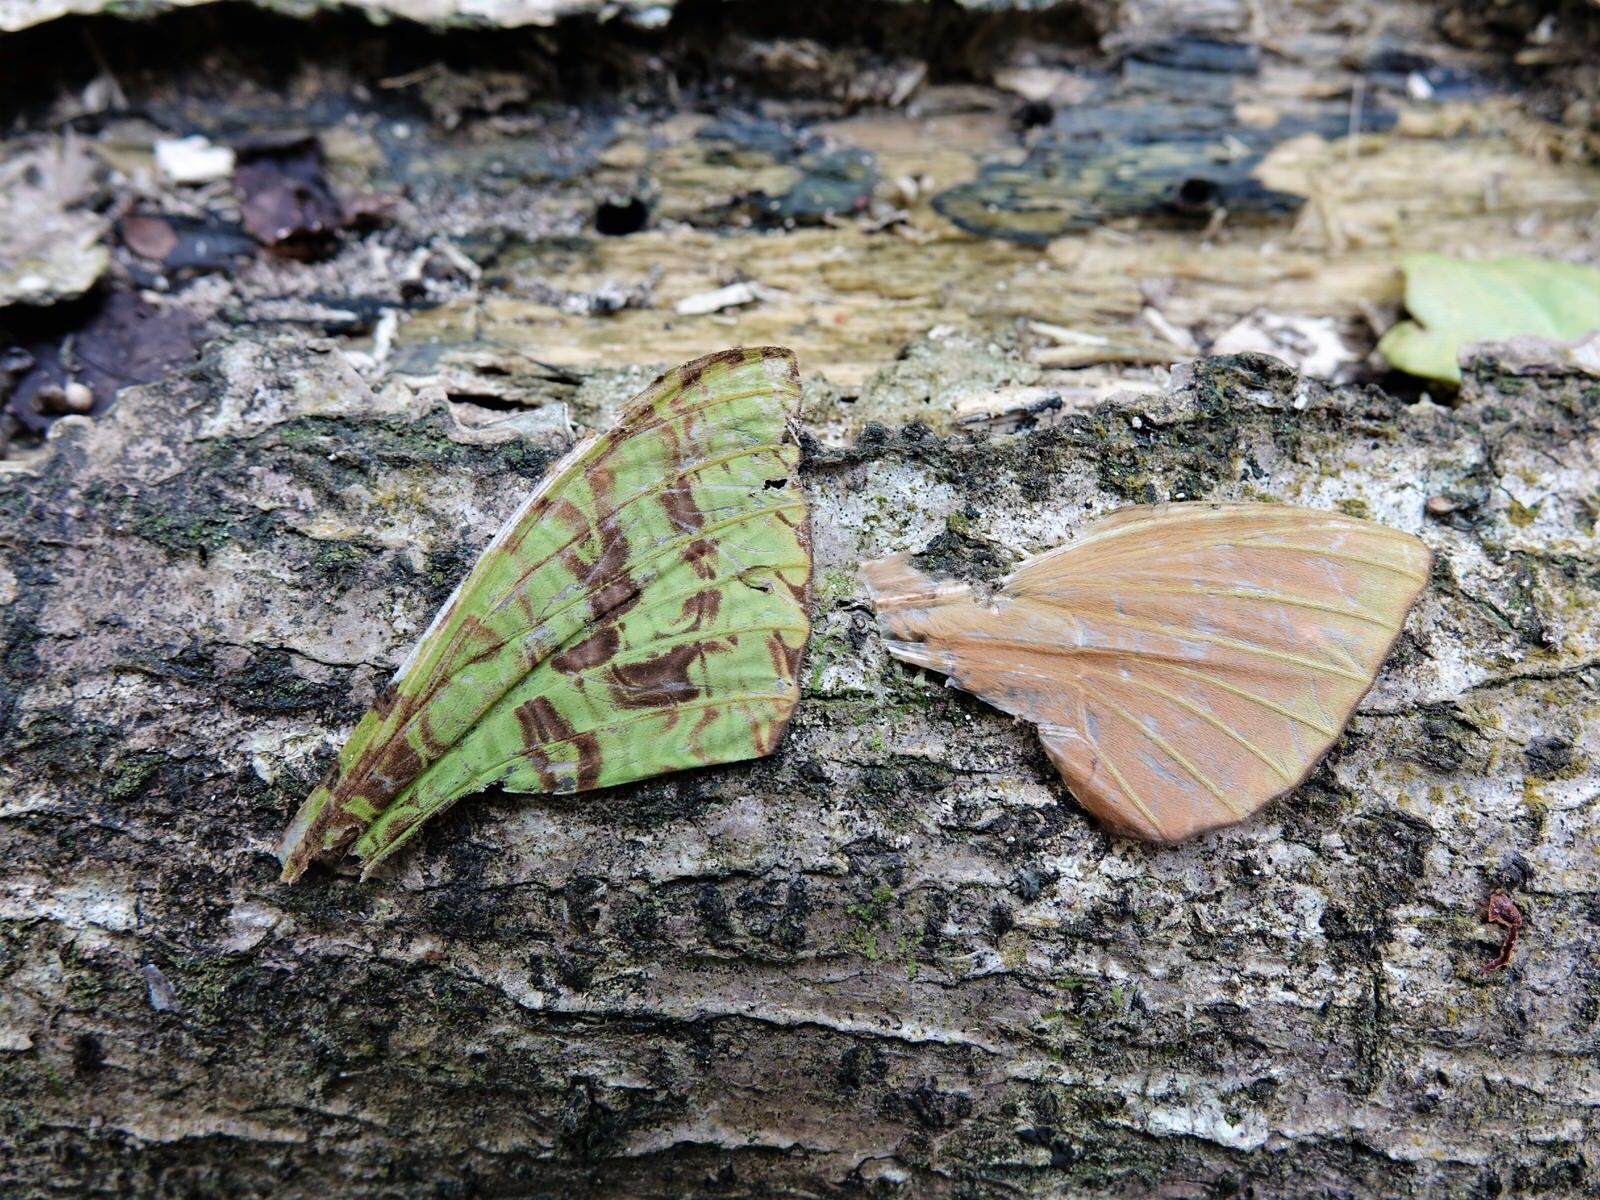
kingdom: Animalia
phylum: Arthropoda
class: Insecta
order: Lepidoptera
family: Hepialidae
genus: Aenetus
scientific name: Aenetus virescens
